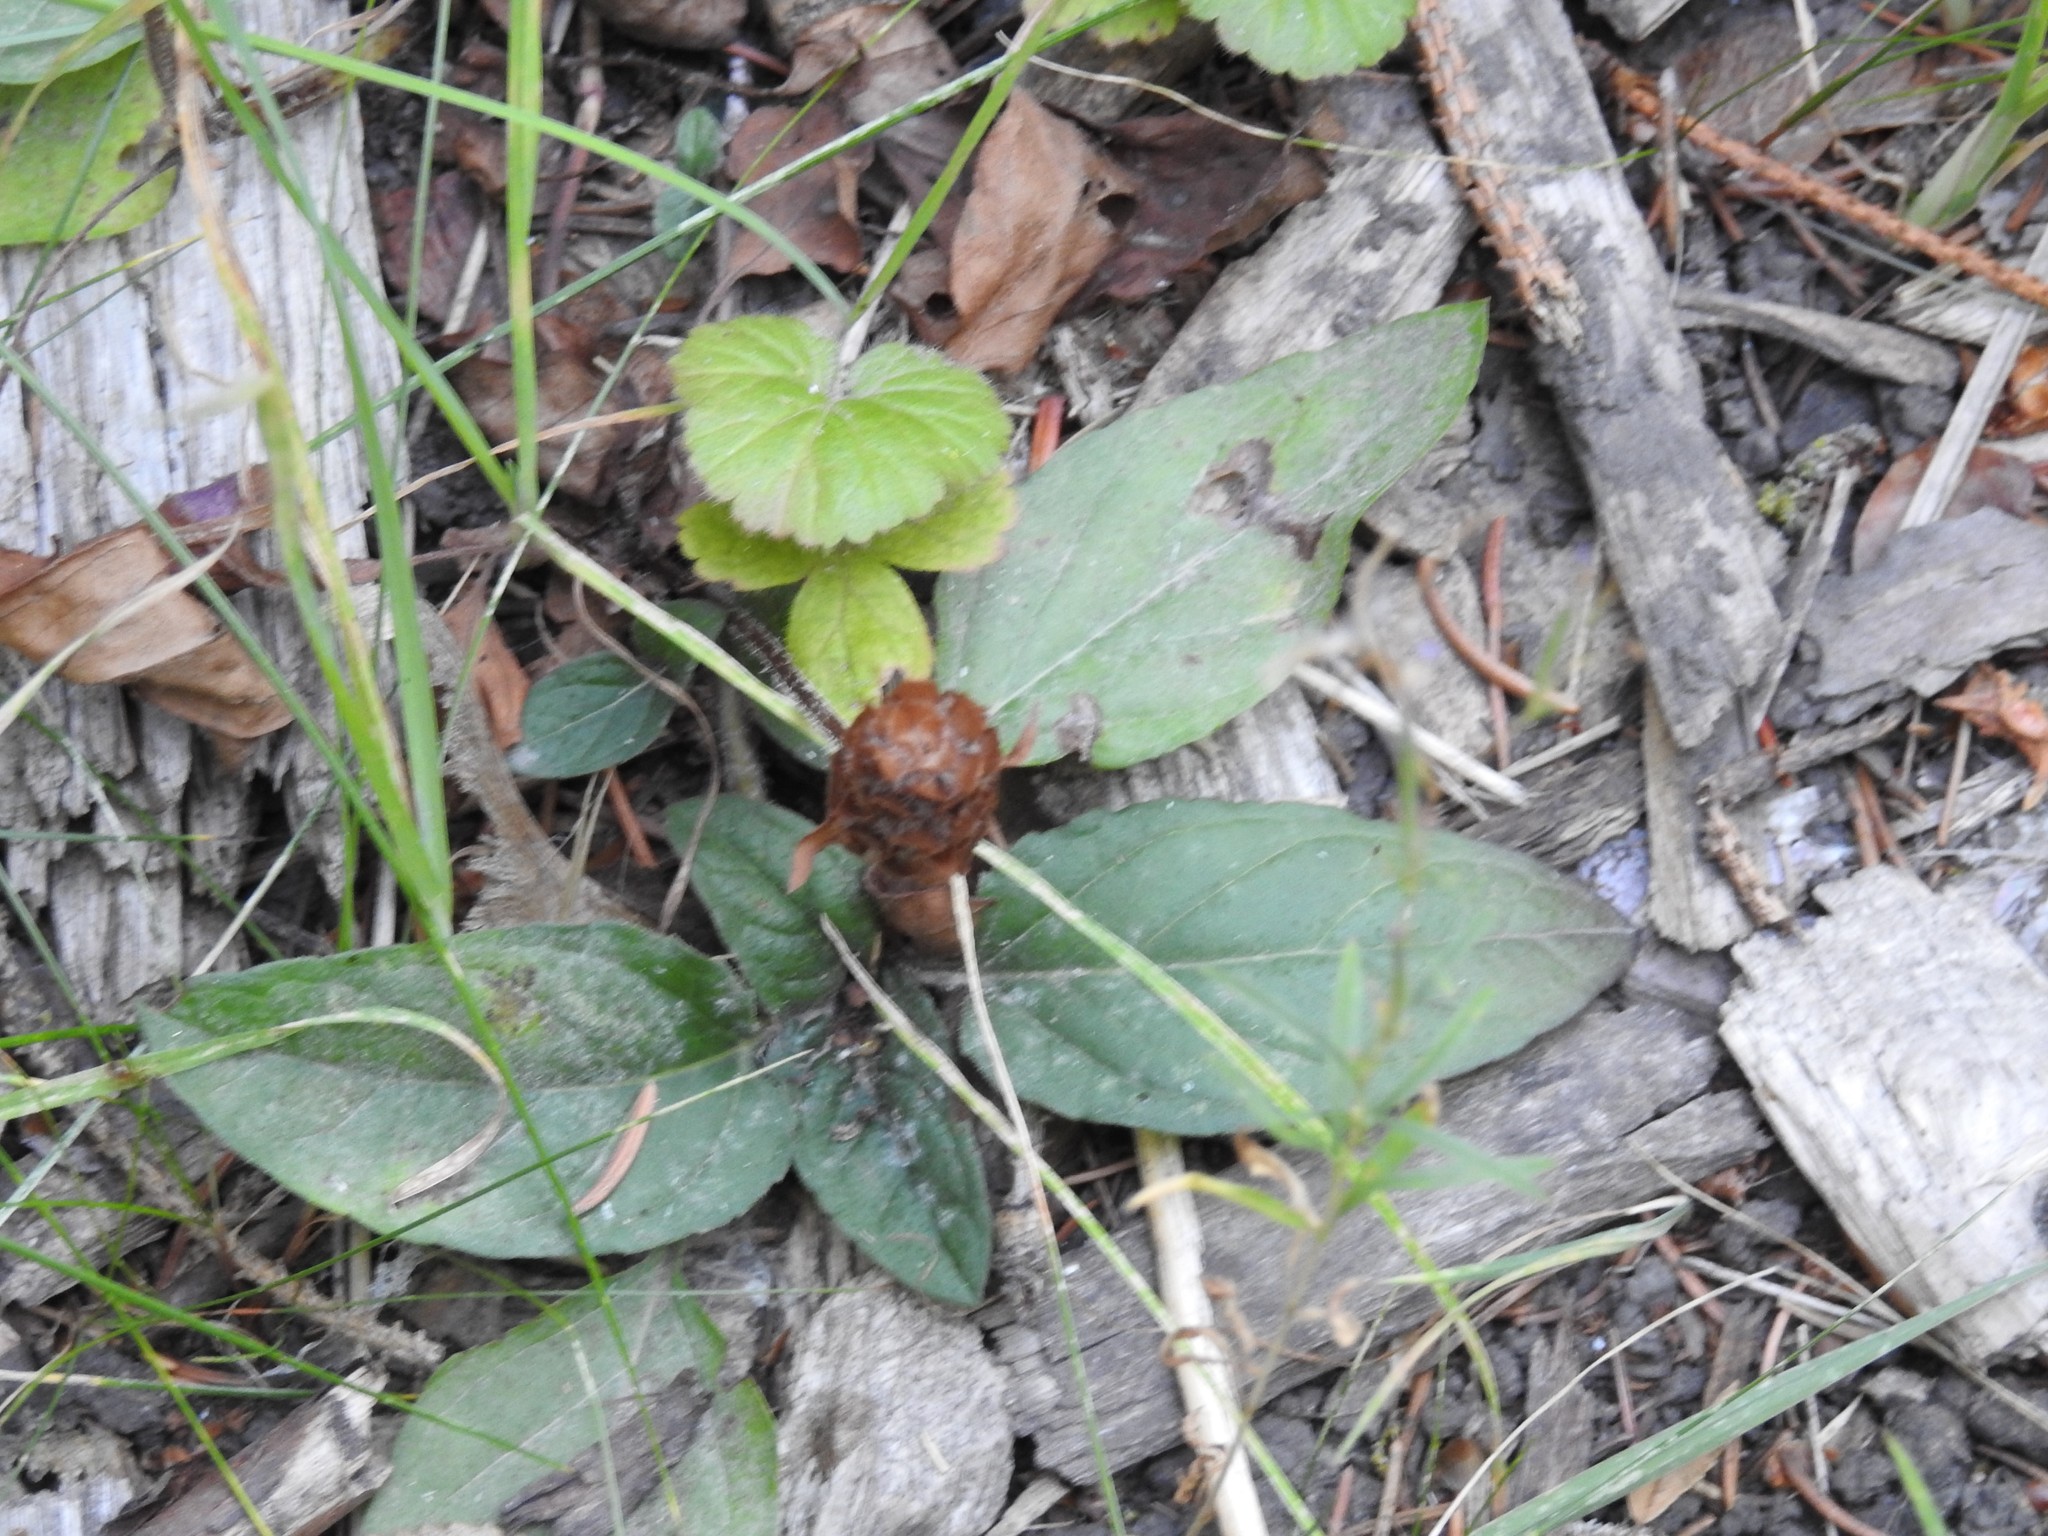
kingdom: Plantae
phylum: Tracheophyta
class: Magnoliopsida
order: Lamiales
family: Lamiaceae
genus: Prunella
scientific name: Prunella vulgaris
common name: Heal-all
